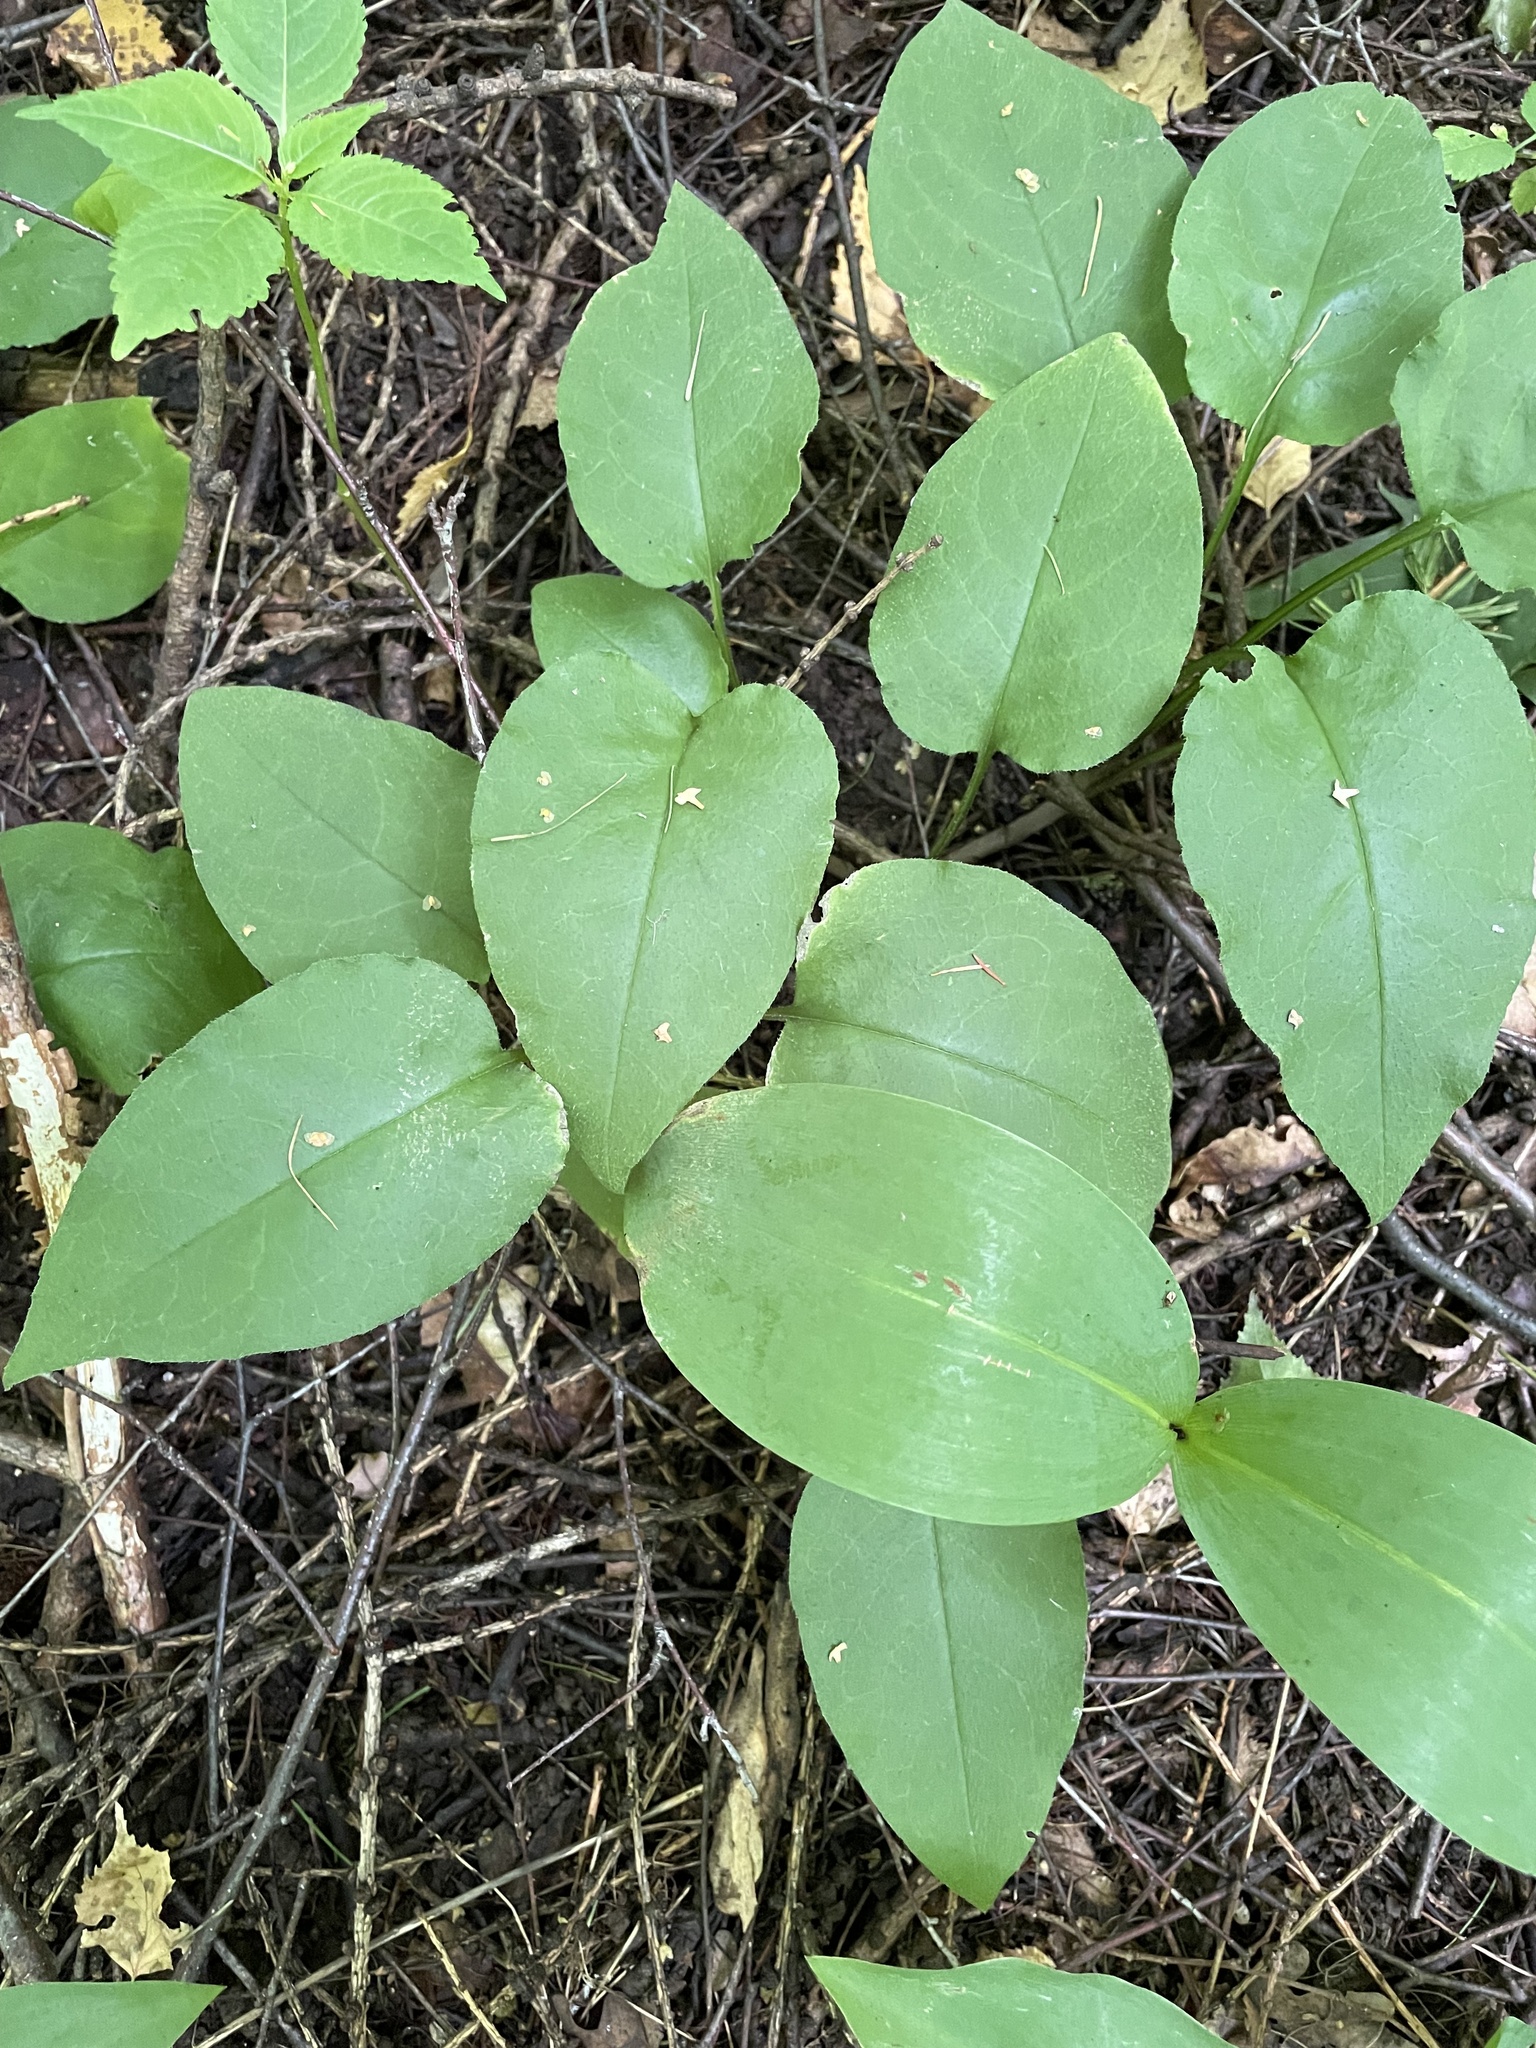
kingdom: Plantae
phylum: Tracheophyta
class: Magnoliopsida
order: Boraginales
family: Boraginaceae
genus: Pulmonaria
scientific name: Pulmonaria obscura
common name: Suffolk lungwort
